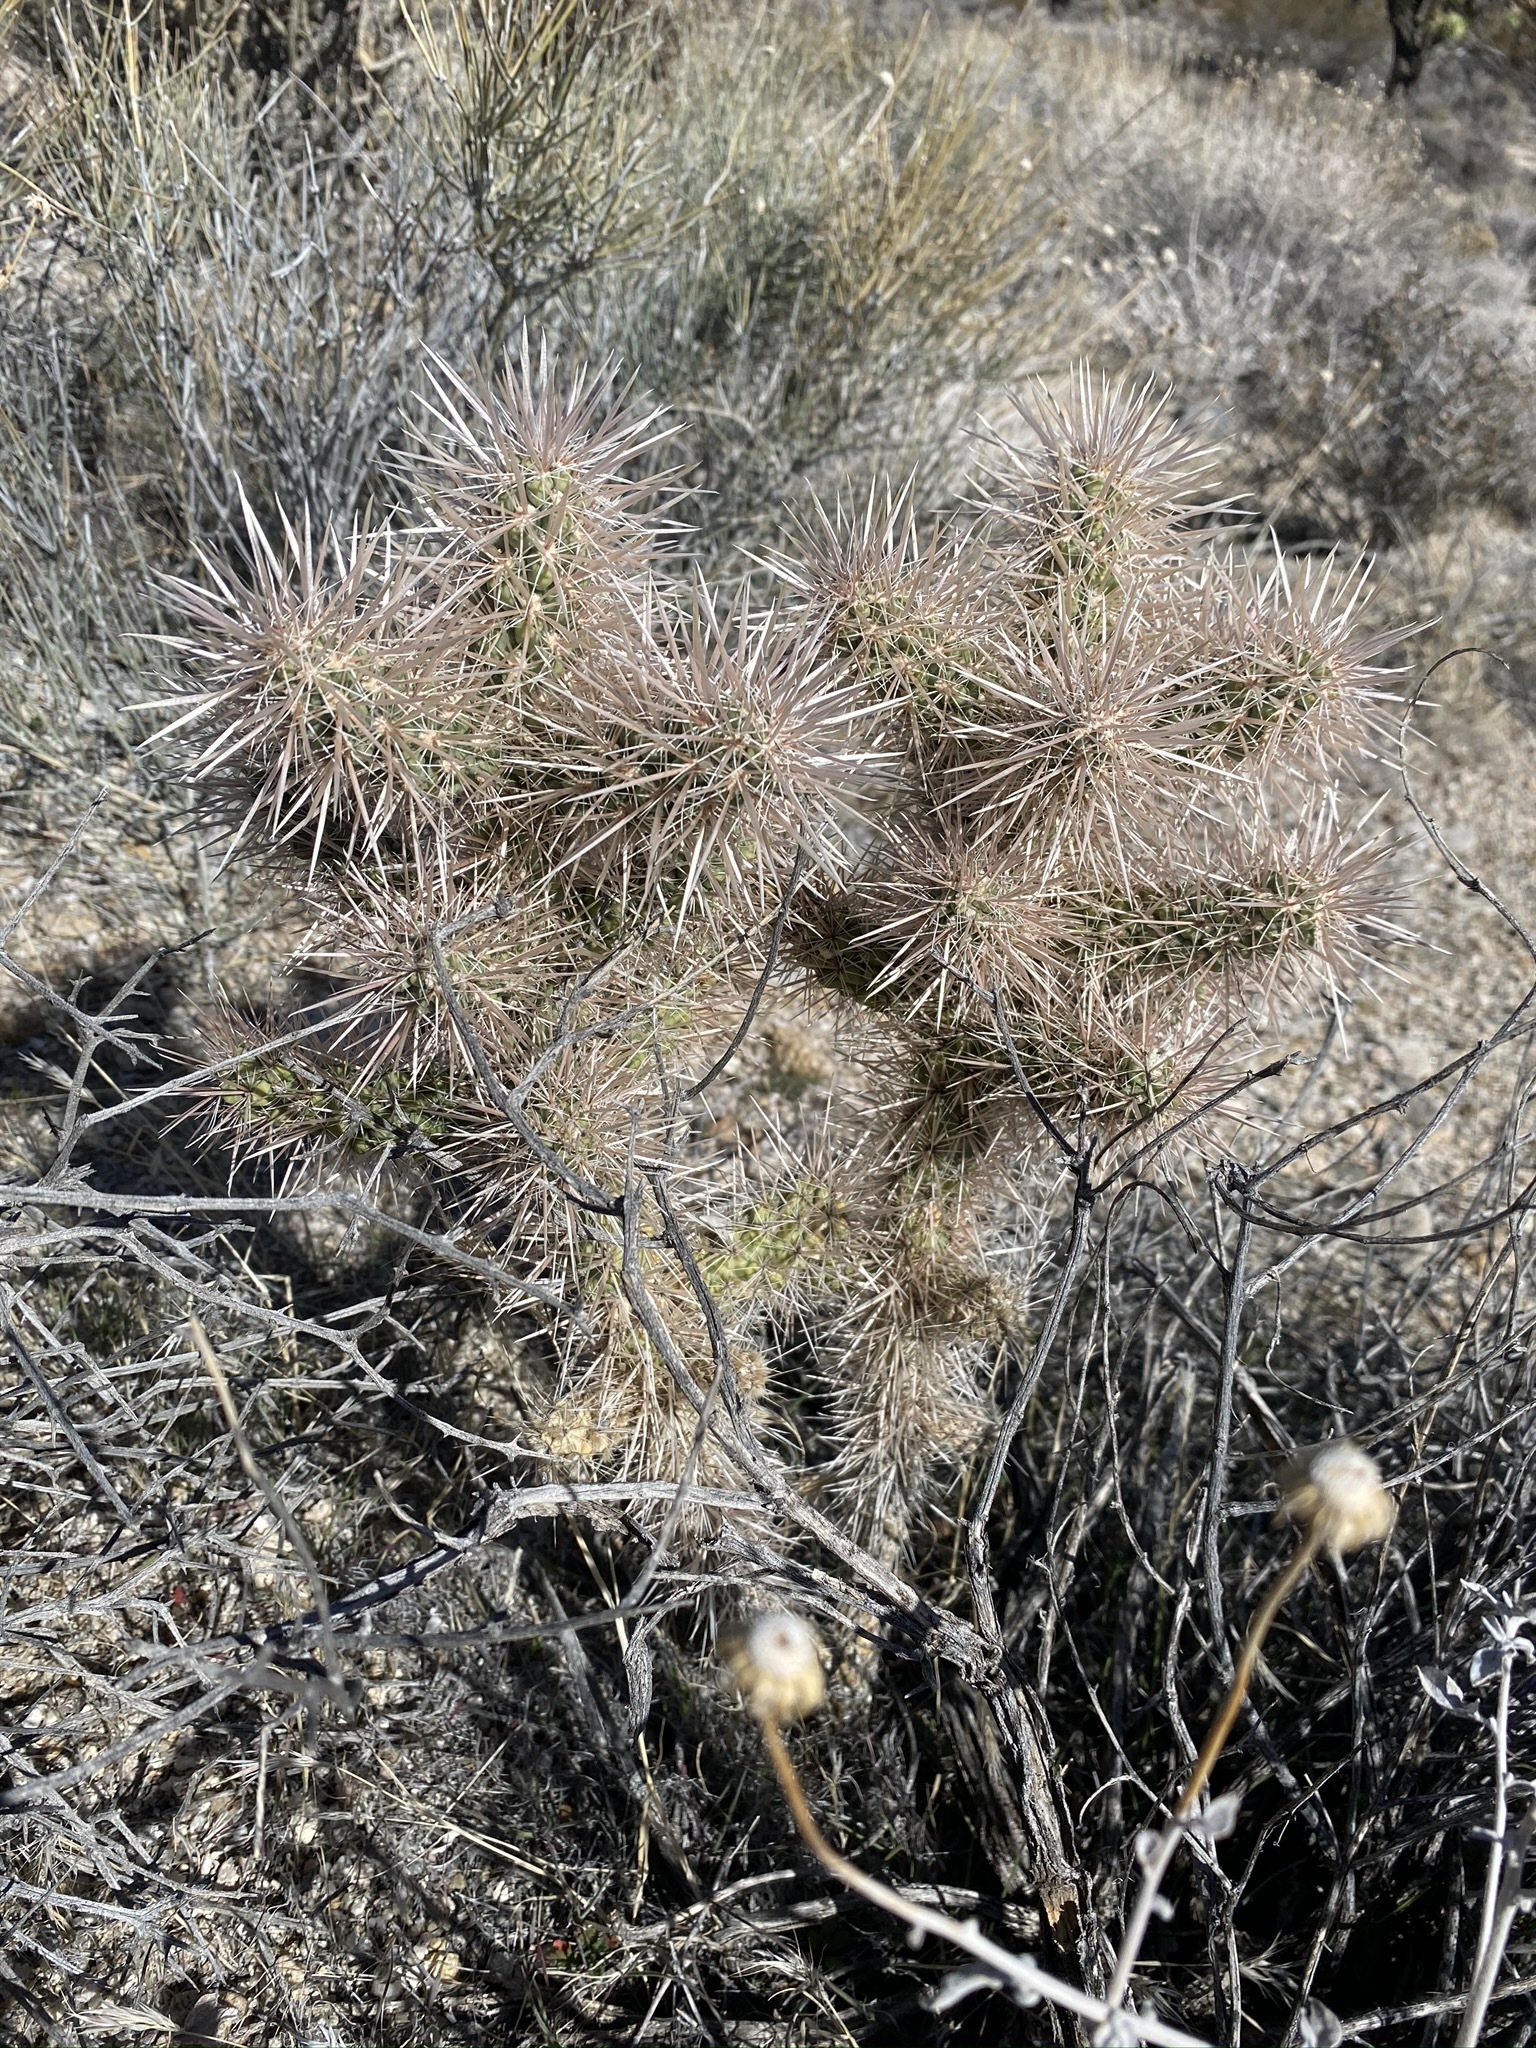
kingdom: Plantae
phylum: Tracheophyta
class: Magnoliopsida
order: Caryophyllales
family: Cactaceae
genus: Cylindropuntia
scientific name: Cylindropuntia echinocarpa
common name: Ground cholla
